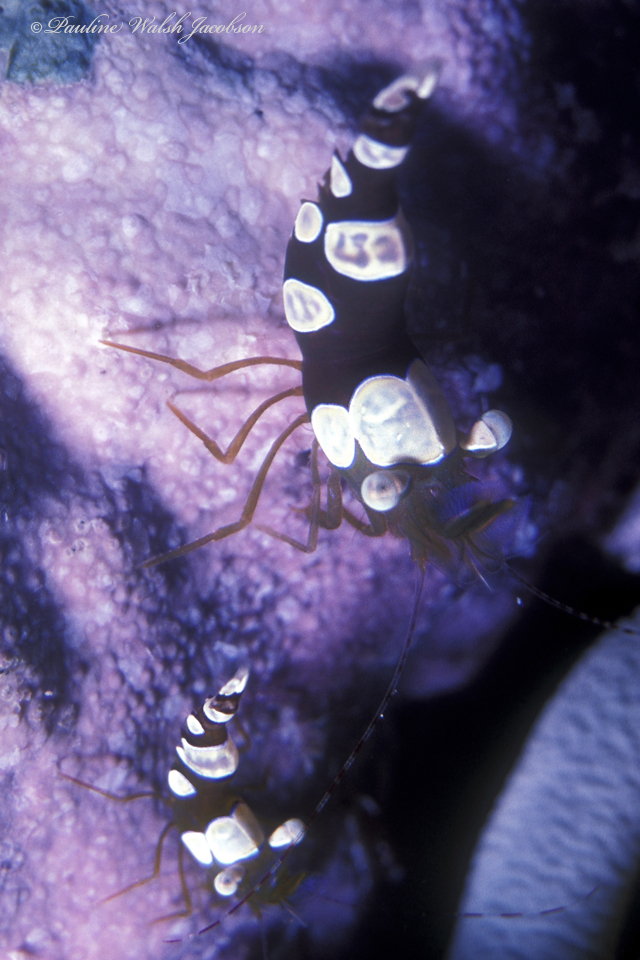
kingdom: Animalia
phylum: Arthropoda
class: Malacostraca
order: Decapoda
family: Thoridae
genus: Thor
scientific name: Thor dicaprio
